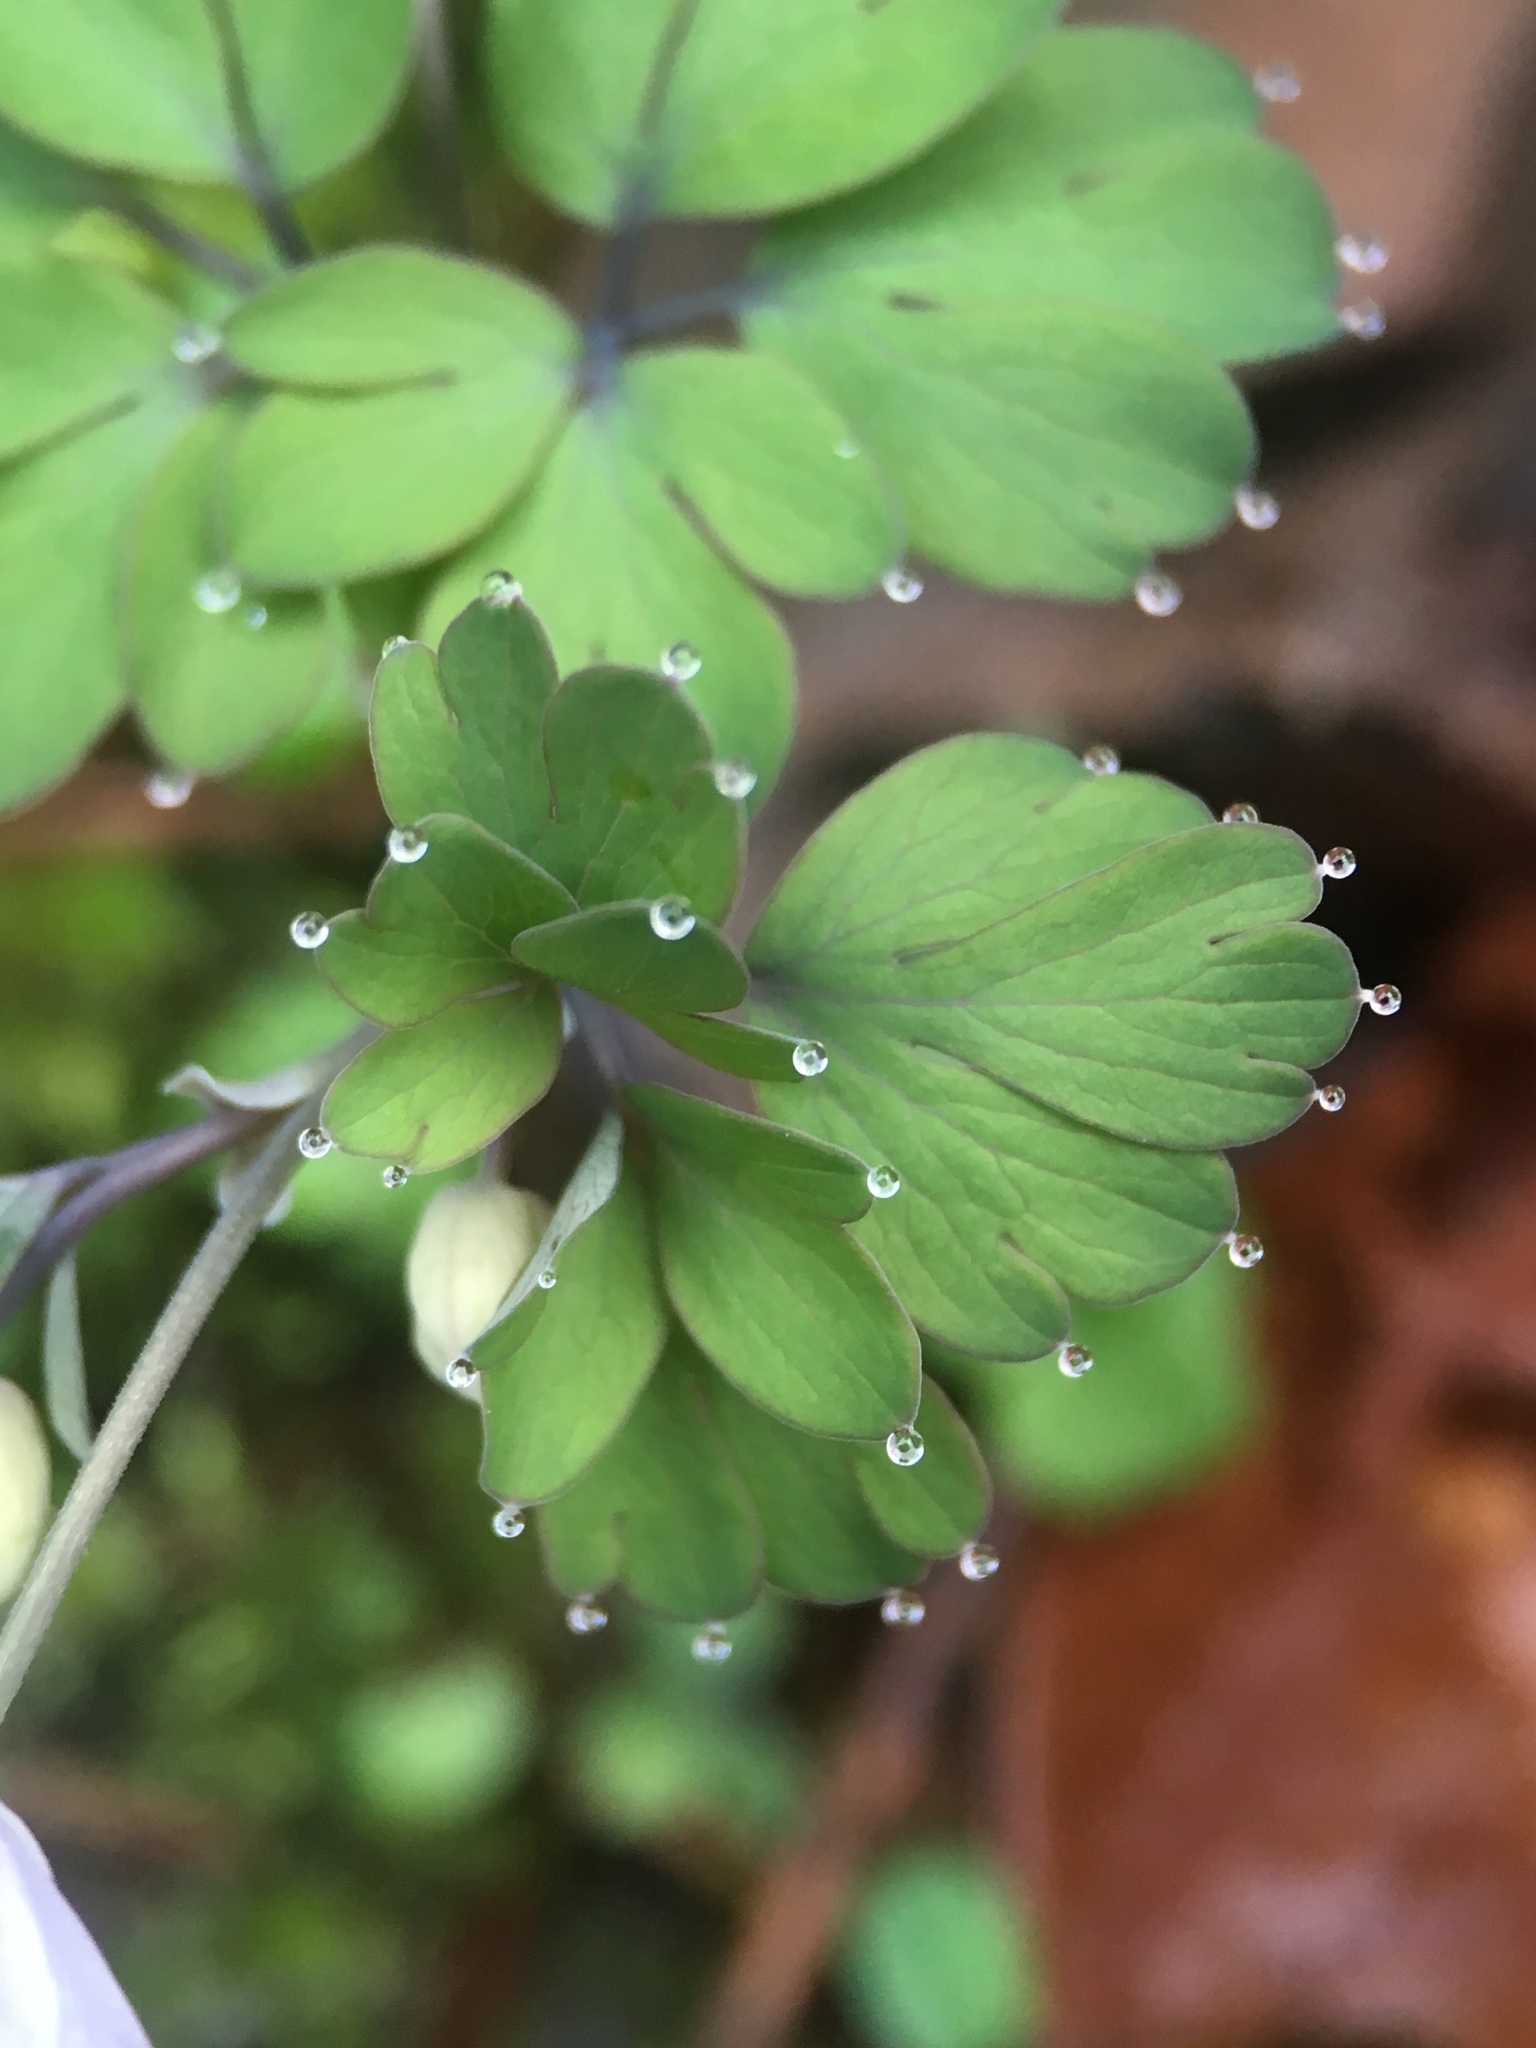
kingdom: Plantae
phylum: Tracheophyta
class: Magnoliopsida
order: Ranunculales
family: Ranunculaceae
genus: Enemion
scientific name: Enemion occidentale
